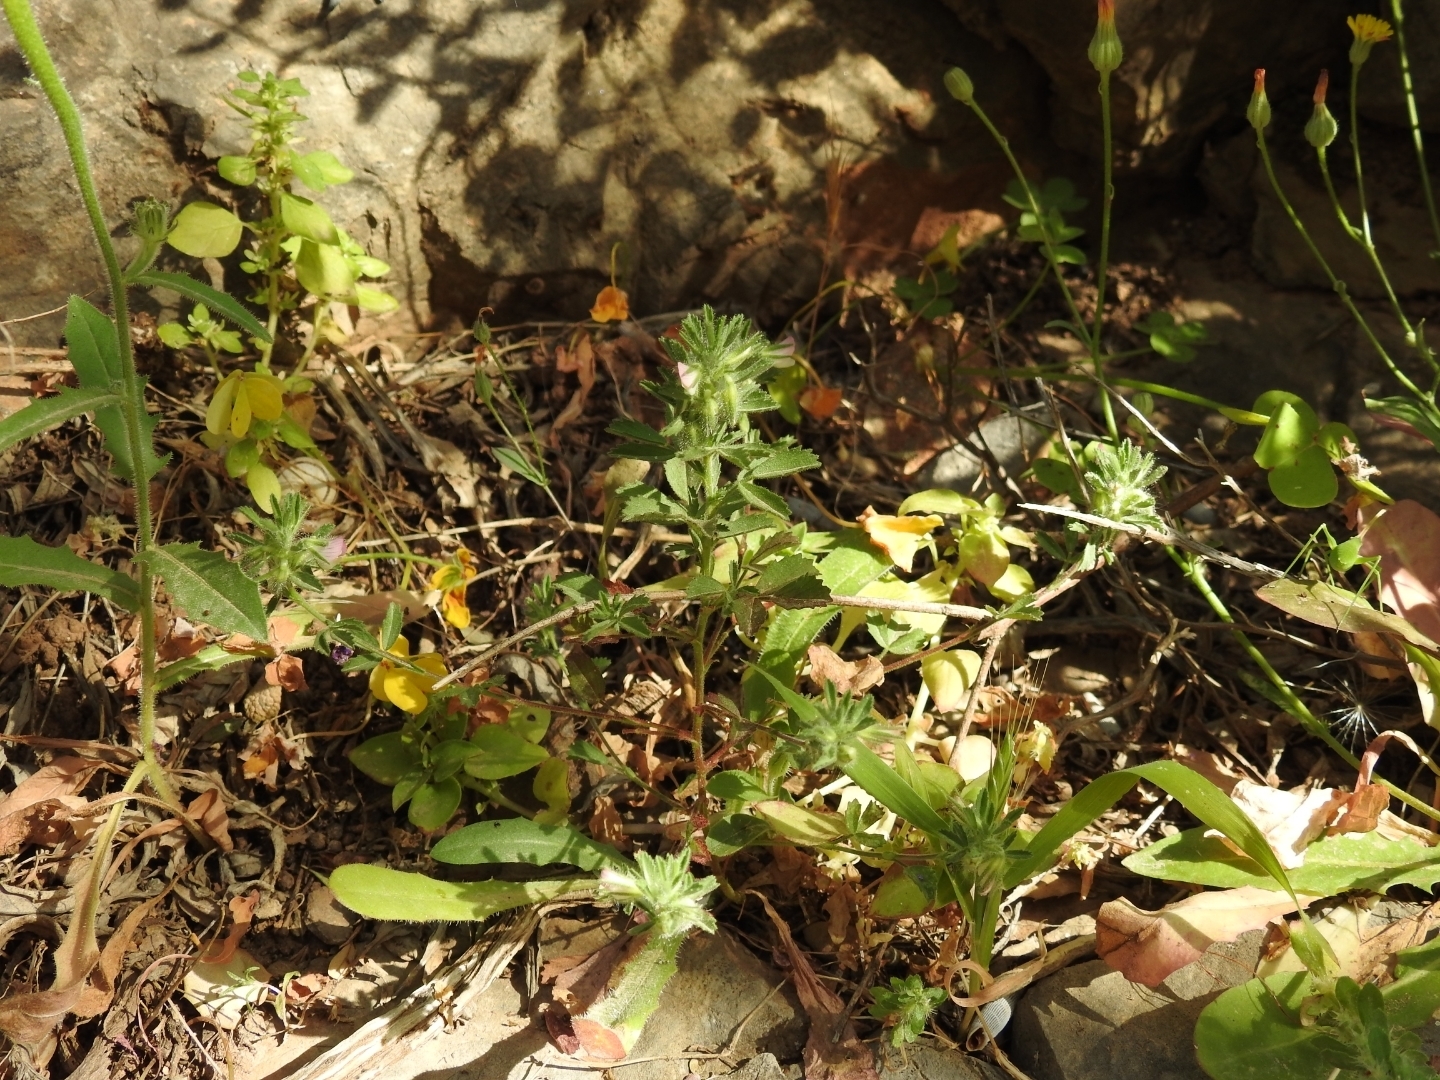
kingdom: Plantae
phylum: Tracheophyta
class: Magnoliopsida
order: Fabales
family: Fabaceae
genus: Ononis
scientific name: Ononis reclinata
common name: Small restharrow
